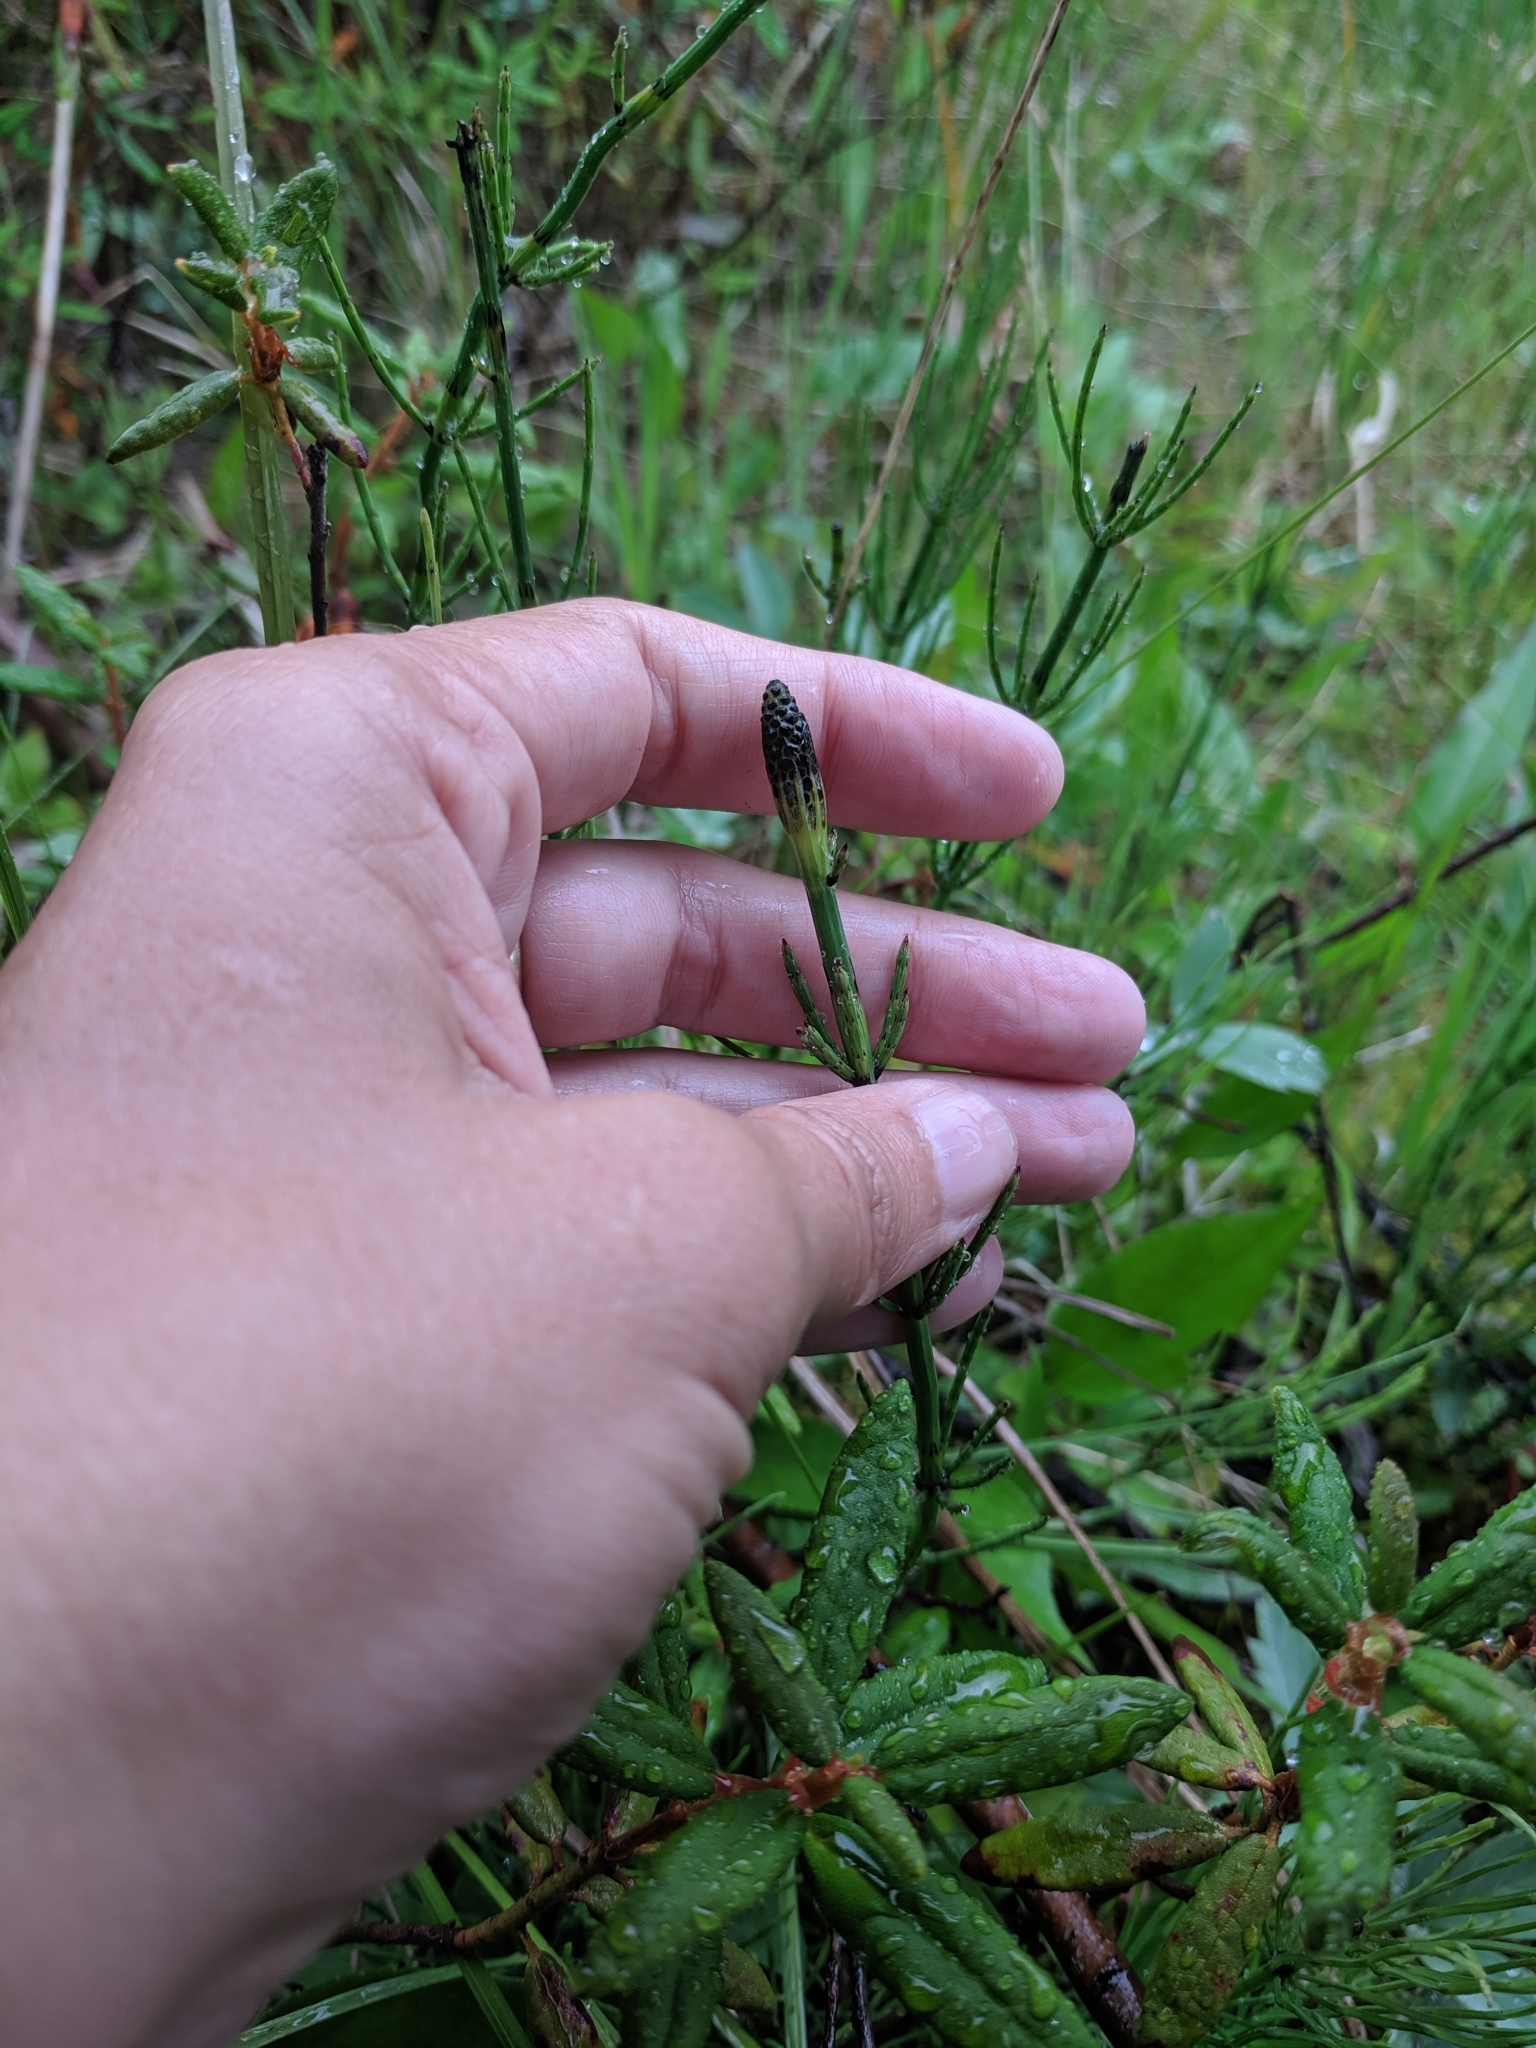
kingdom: Plantae
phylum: Tracheophyta
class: Polypodiopsida
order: Equisetales
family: Equisetaceae
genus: Equisetum
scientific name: Equisetum palustre
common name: Marsh horsetail
